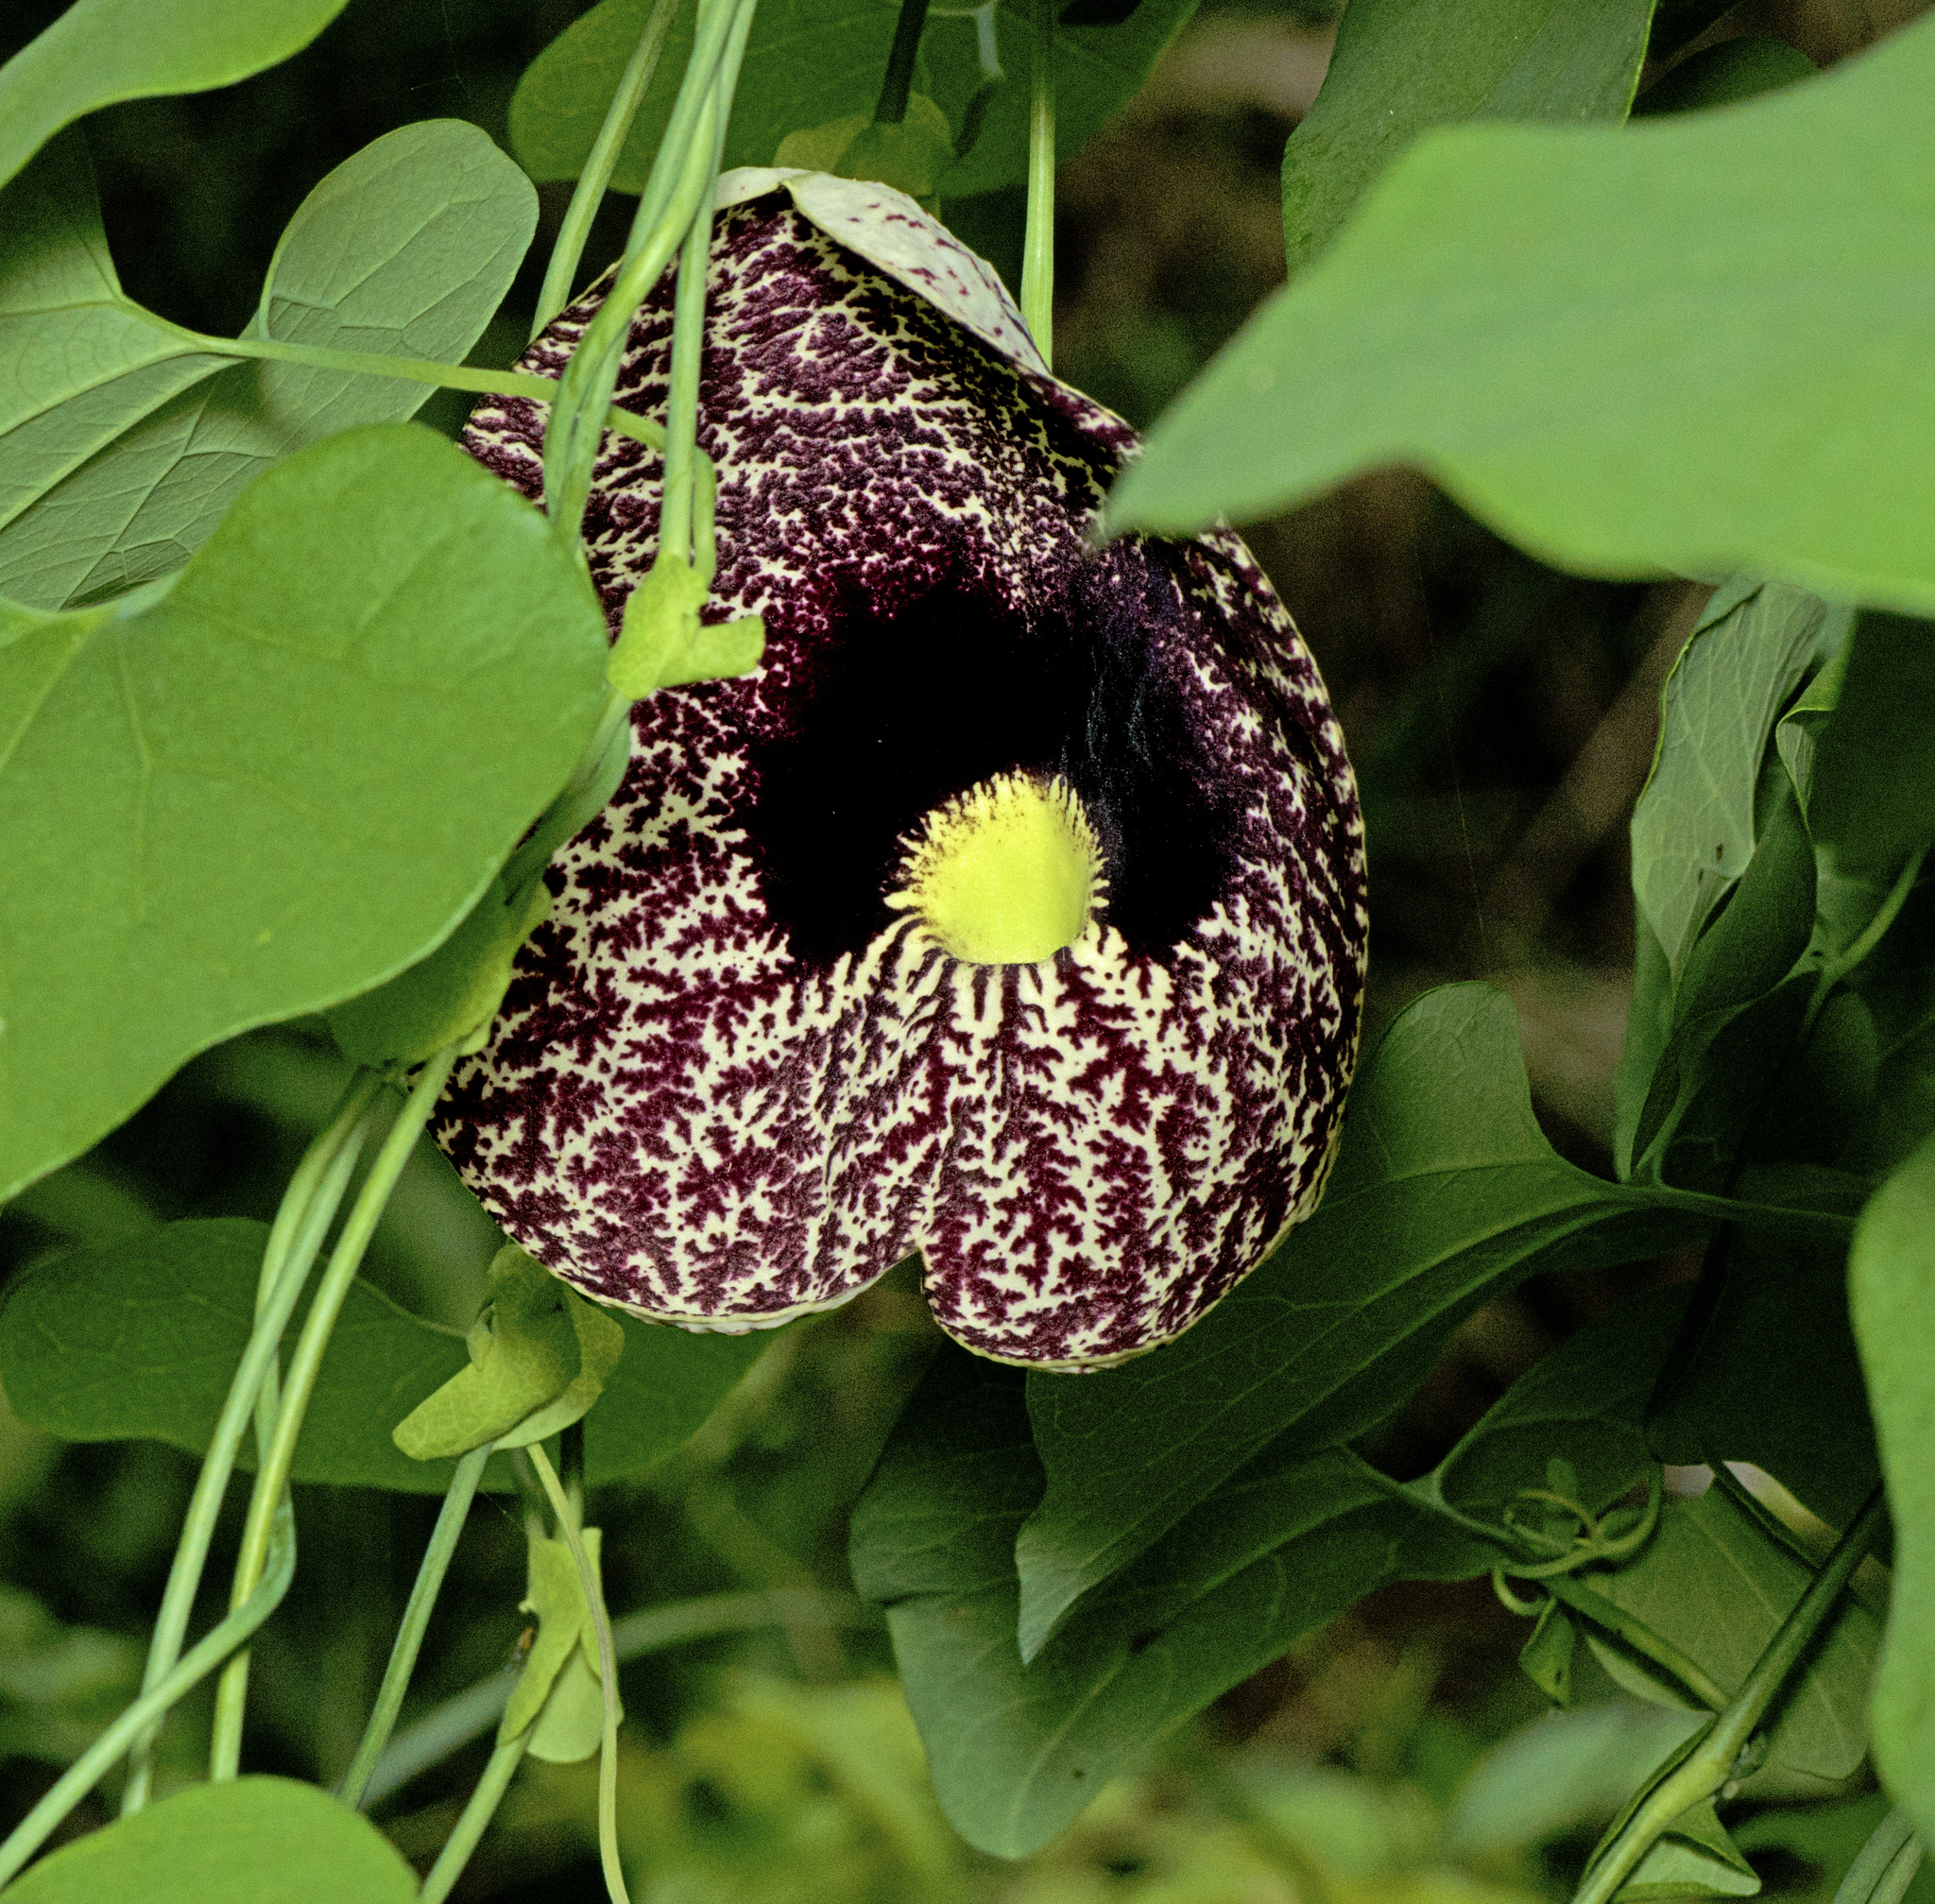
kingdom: Plantae
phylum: Tracheophyta
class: Magnoliopsida
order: Piperales
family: Aristolochiaceae
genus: Aristolochia
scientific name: Aristolochia littoralis
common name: Duck
